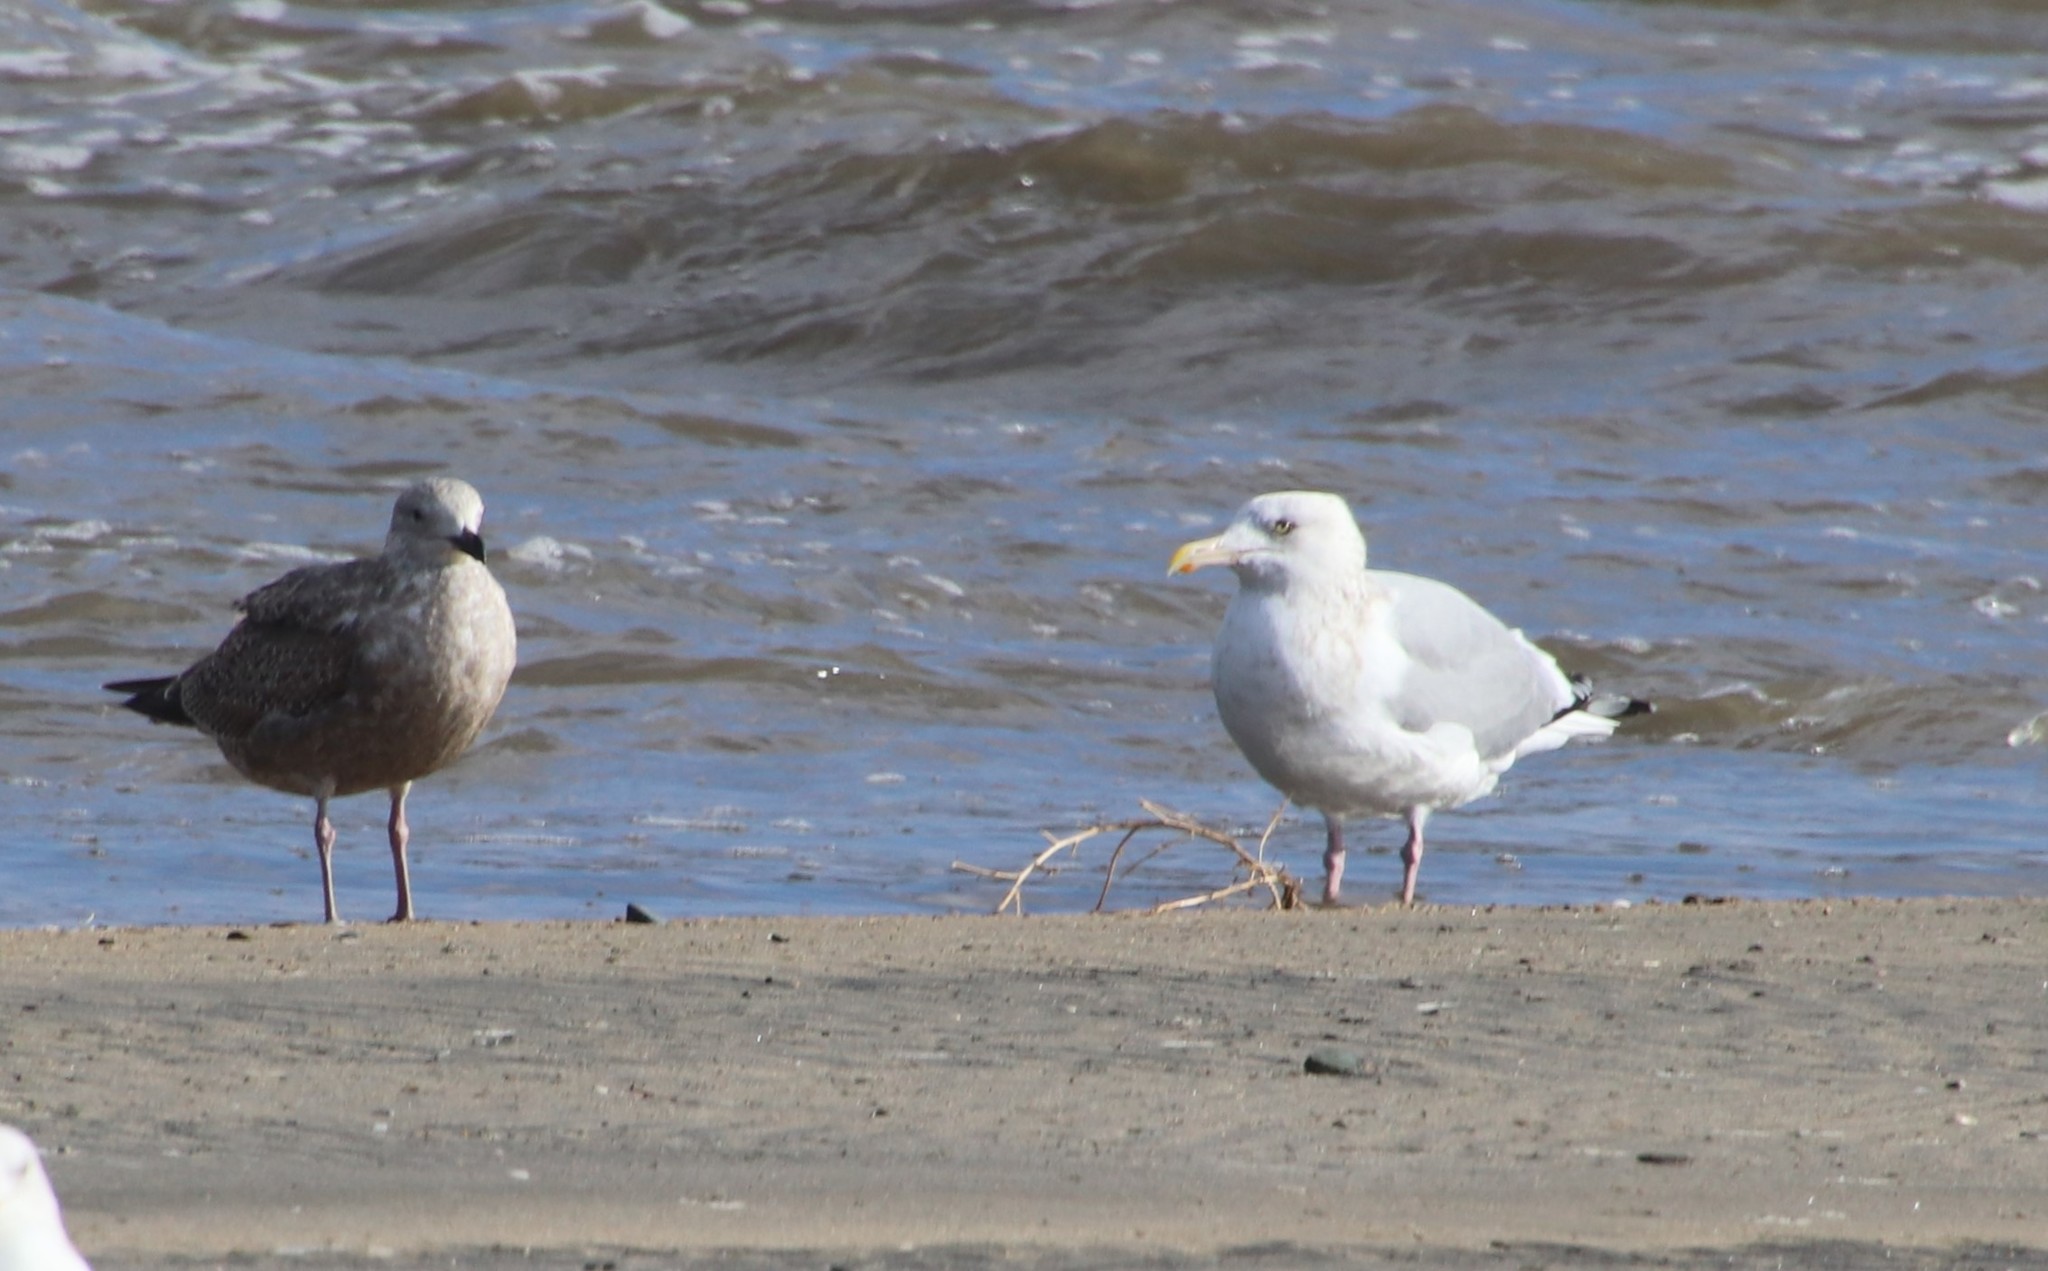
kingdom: Animalia
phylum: Chordata
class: Aves
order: Charadriiformes
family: Laridae
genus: Larus
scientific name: Larus argentatus
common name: Herring gull
